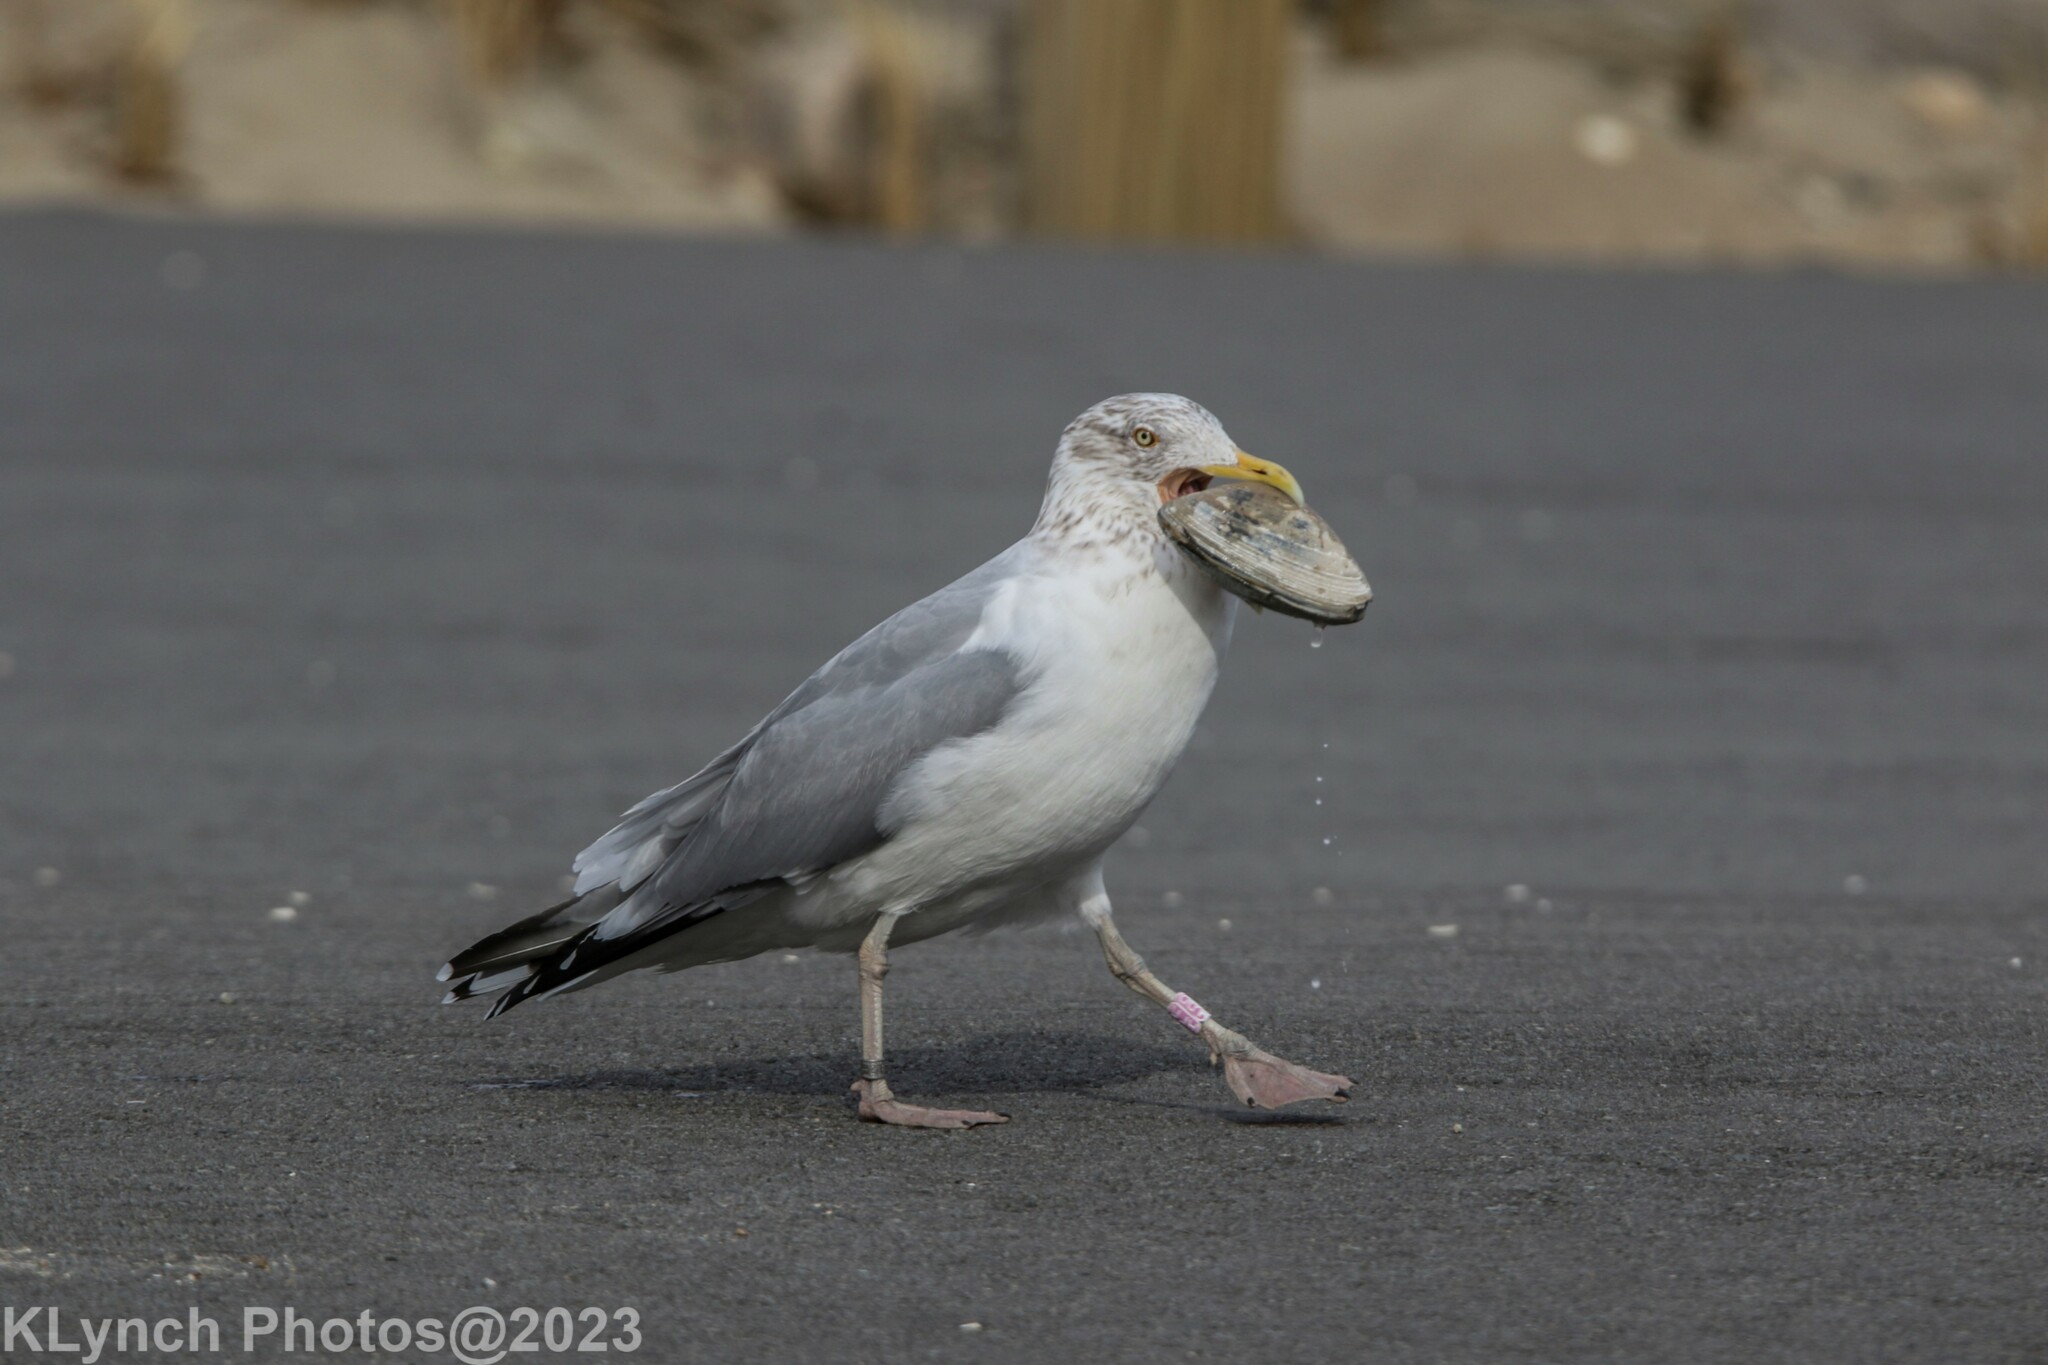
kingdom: Animalia
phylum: Chordata
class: Aves
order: Charadriiformes
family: Laridae
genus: Larus
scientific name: Larus argentatus
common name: Herring gull
